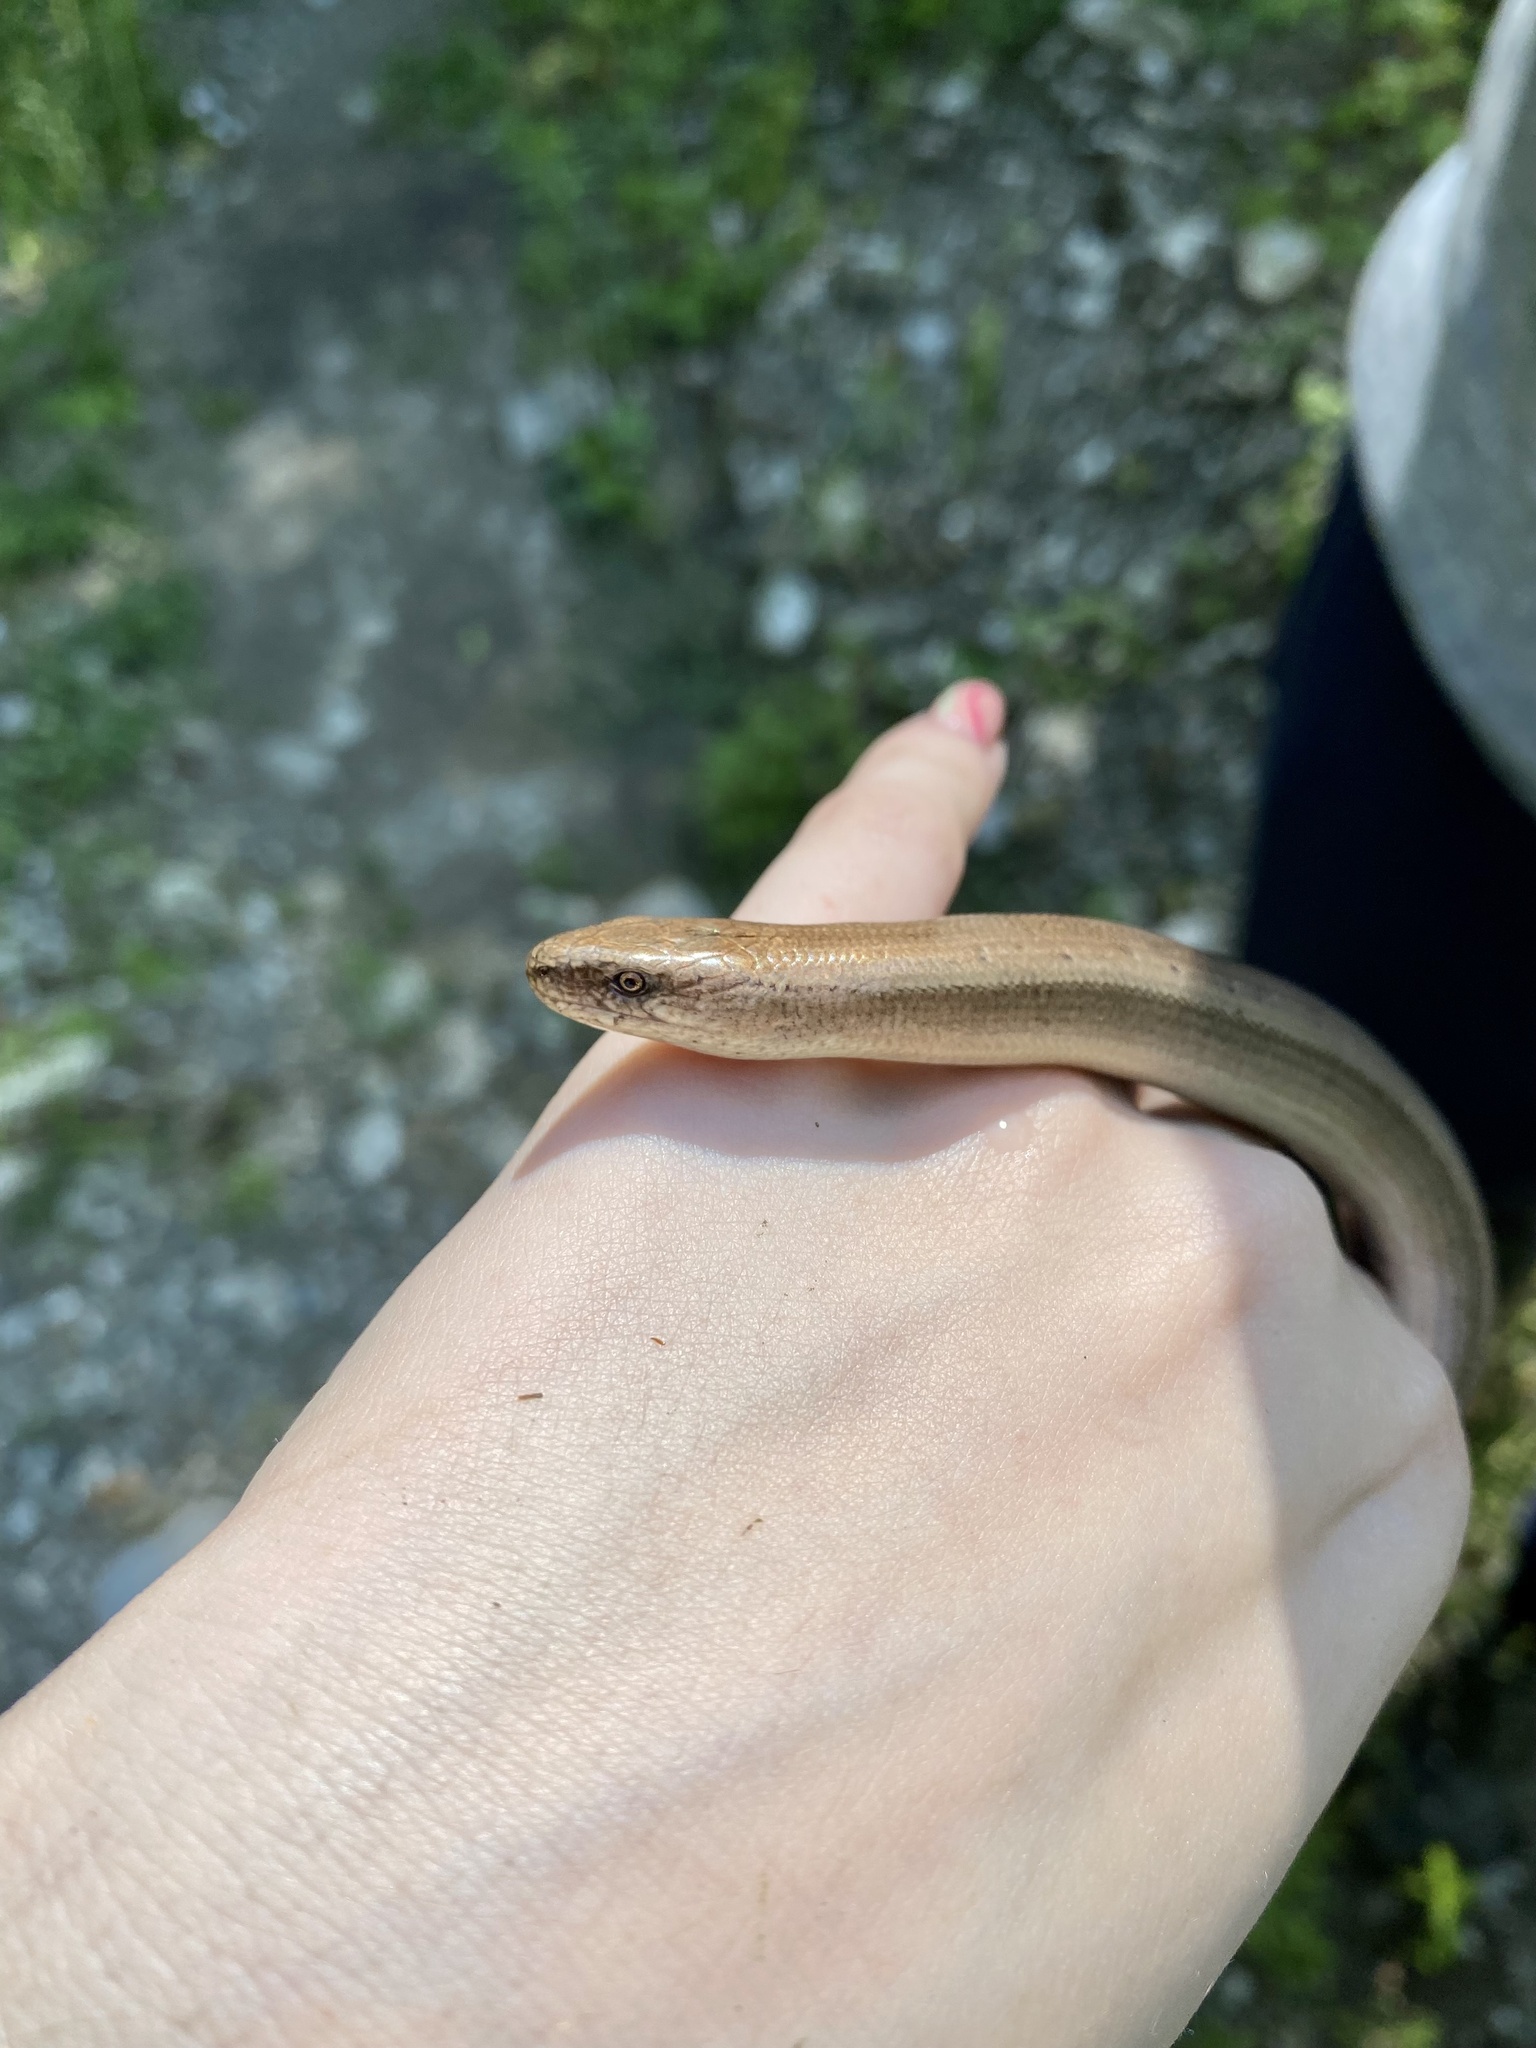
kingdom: Animalia
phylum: Chordata
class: Squamata
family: Anguidae
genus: Anguis
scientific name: Anguis colchica
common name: Slow worm
